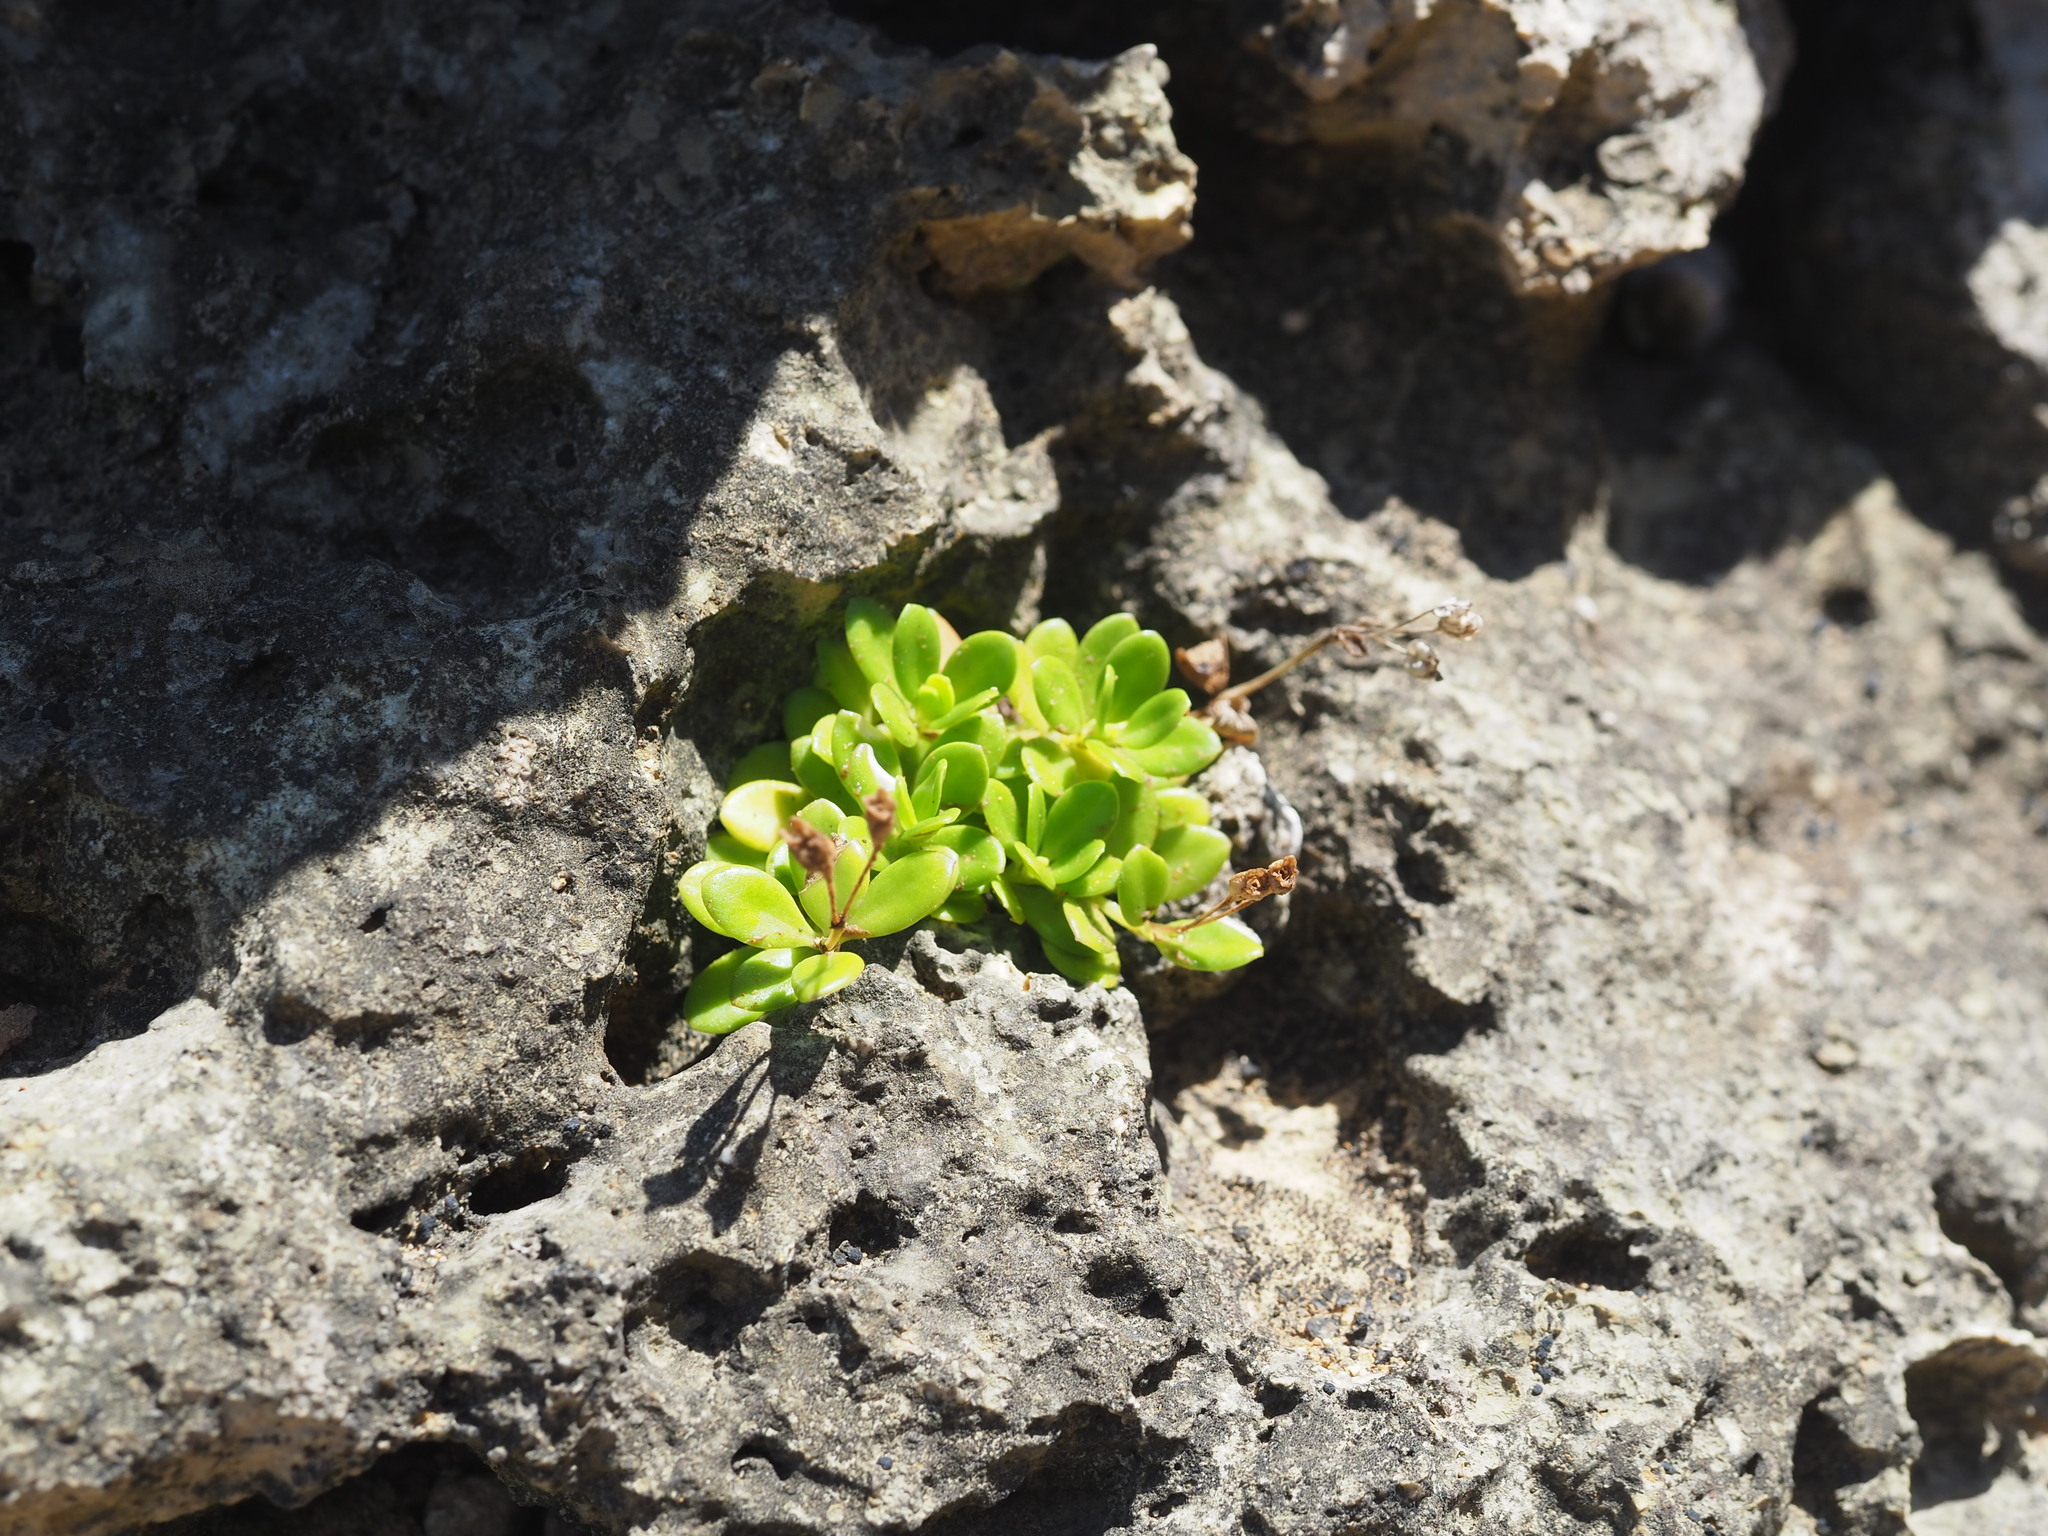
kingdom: Plantae
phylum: Tracheophyta
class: Magnoliopsida
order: Gentianales
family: Rubiaceae
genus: Leptopetalum
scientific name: Leptopetalum strigulosum
